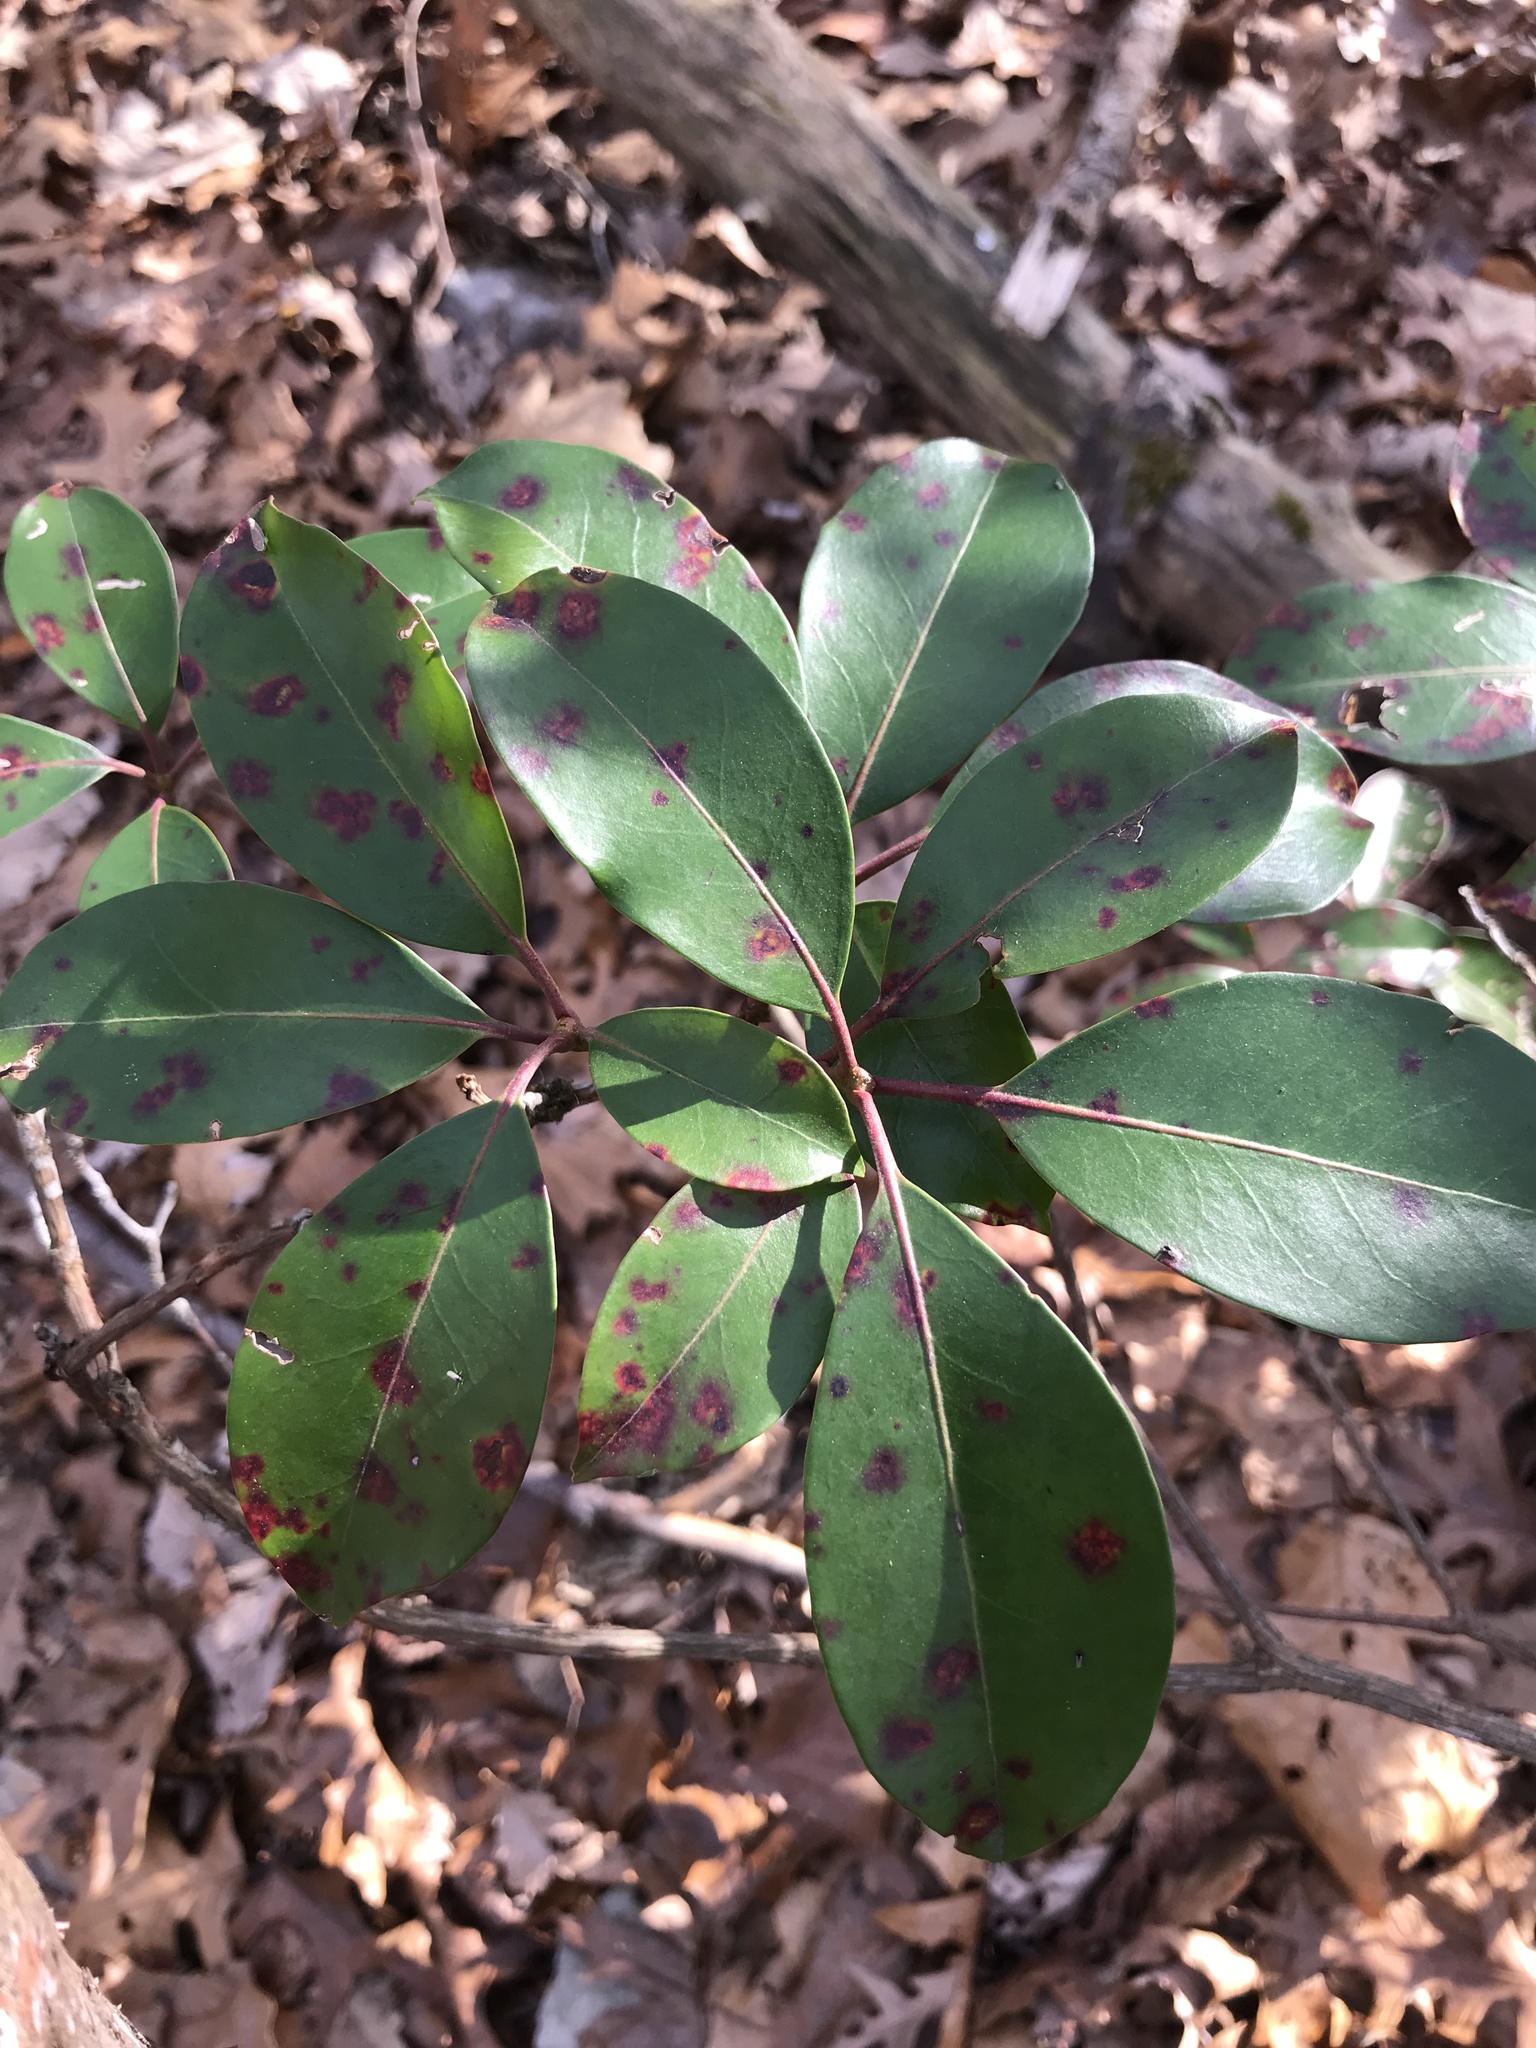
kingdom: Plantae
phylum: Tracheophyta
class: Magnoliopsida
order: Ericales
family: Ericaceae
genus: Kalmia
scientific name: Kalmia latifolia
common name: Mountain-laurel
